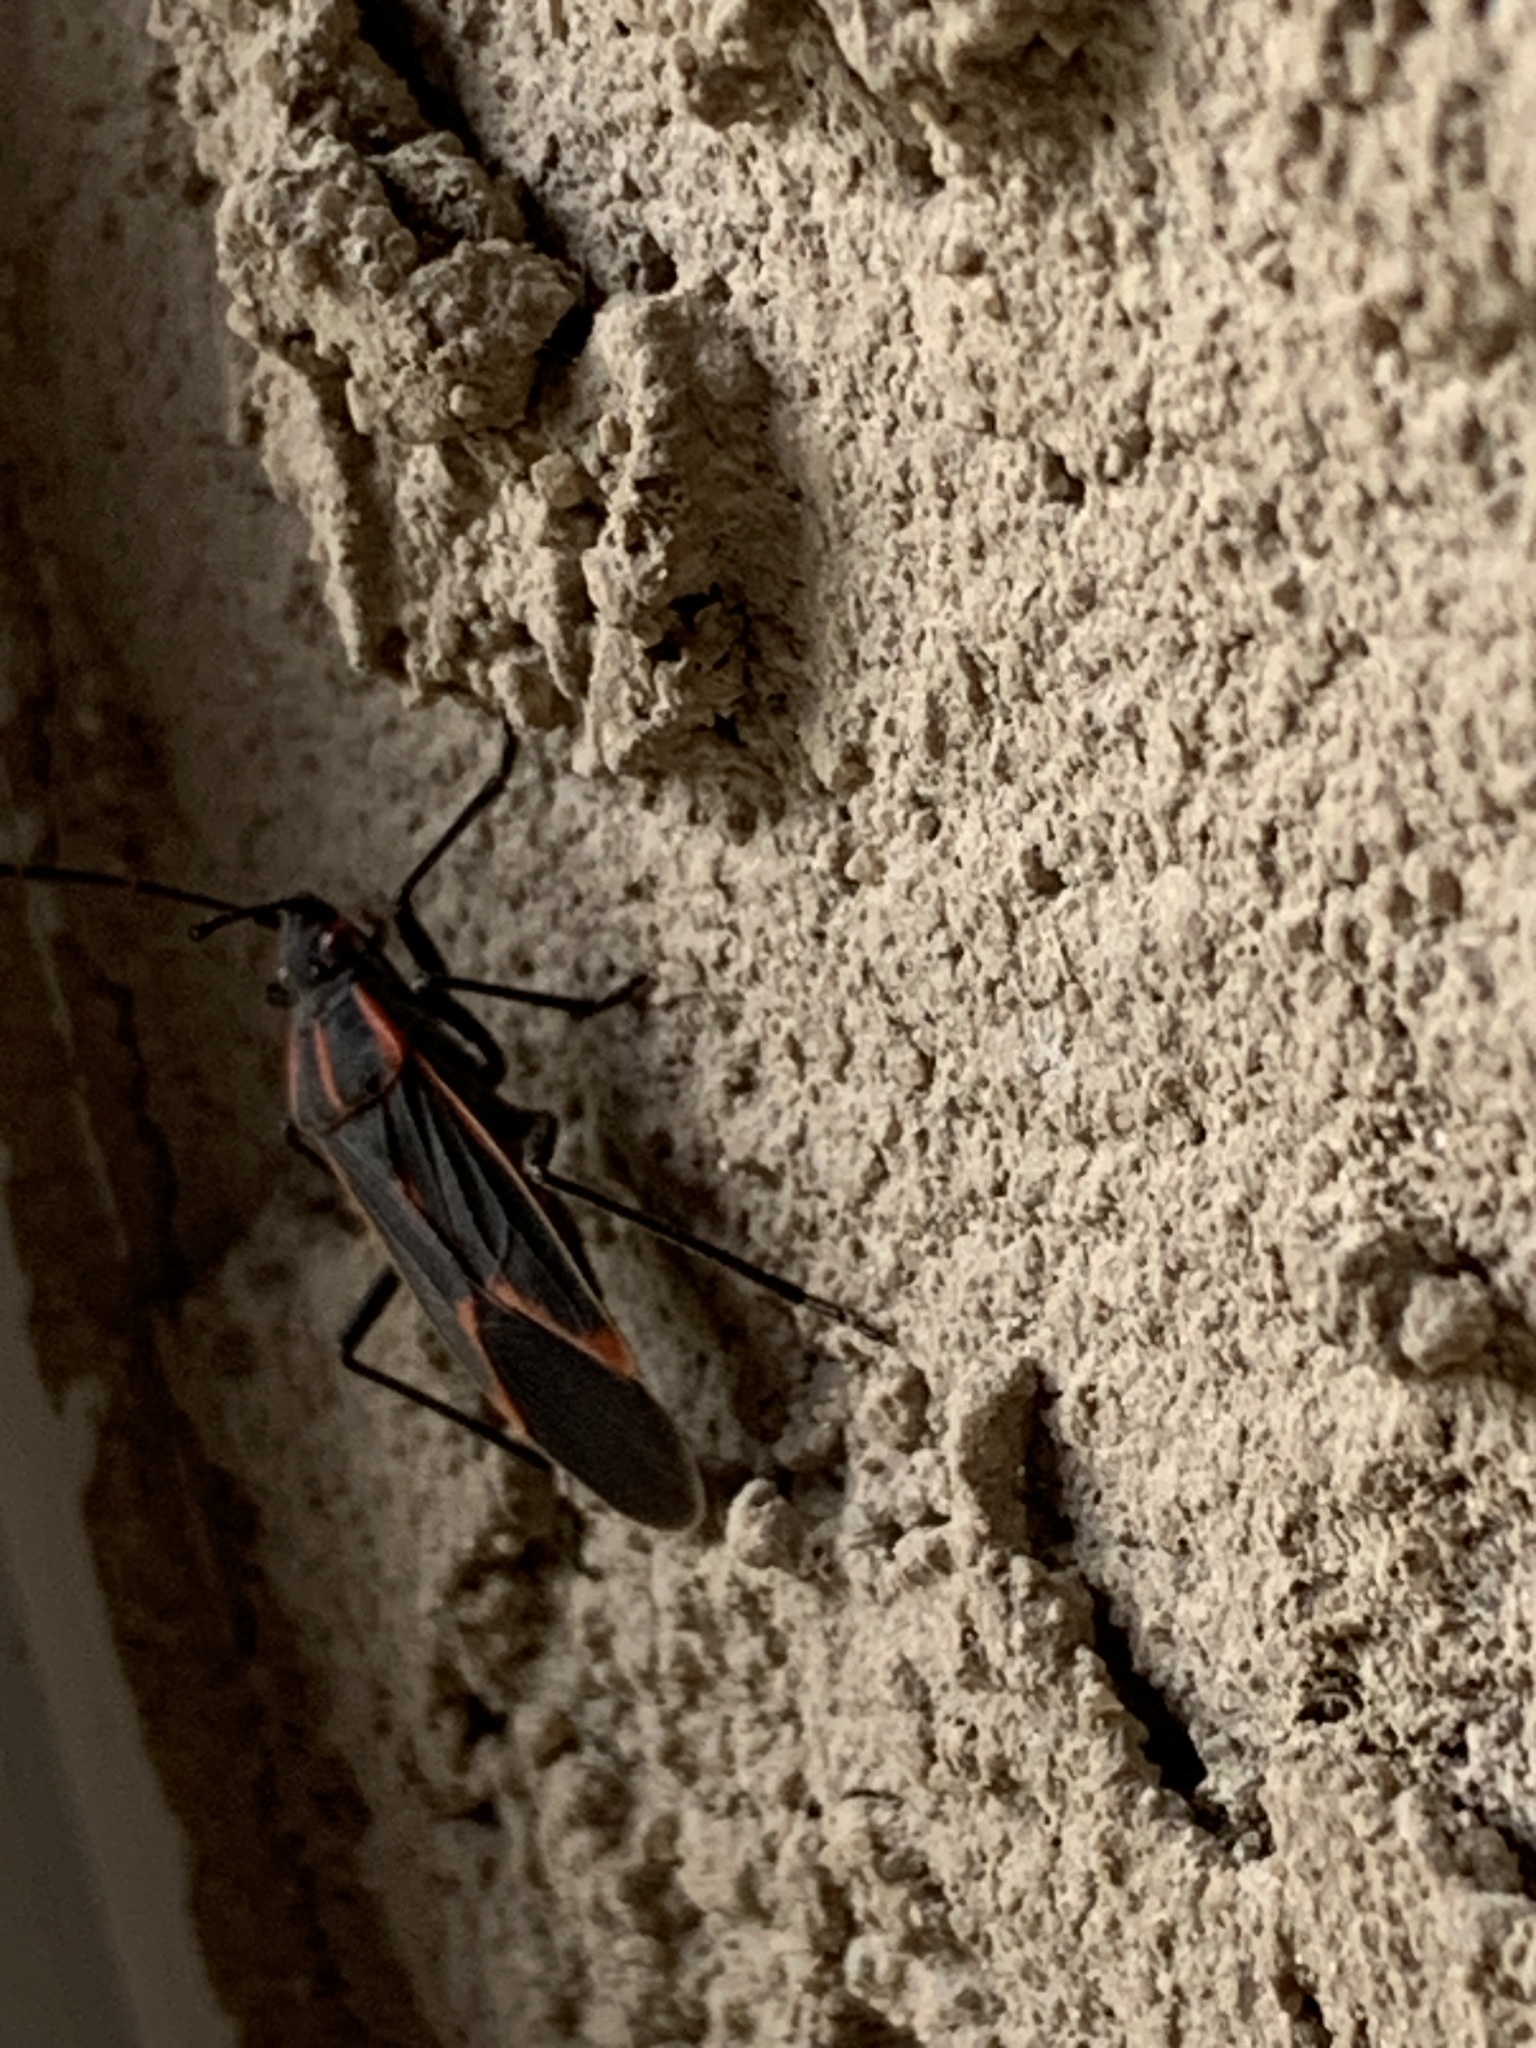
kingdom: Animalia
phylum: Arthropoda
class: Insecta
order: Hemiptera
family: Rhopalidae
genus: Boisea
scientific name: Boisea trivittata
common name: Boxelder bug
